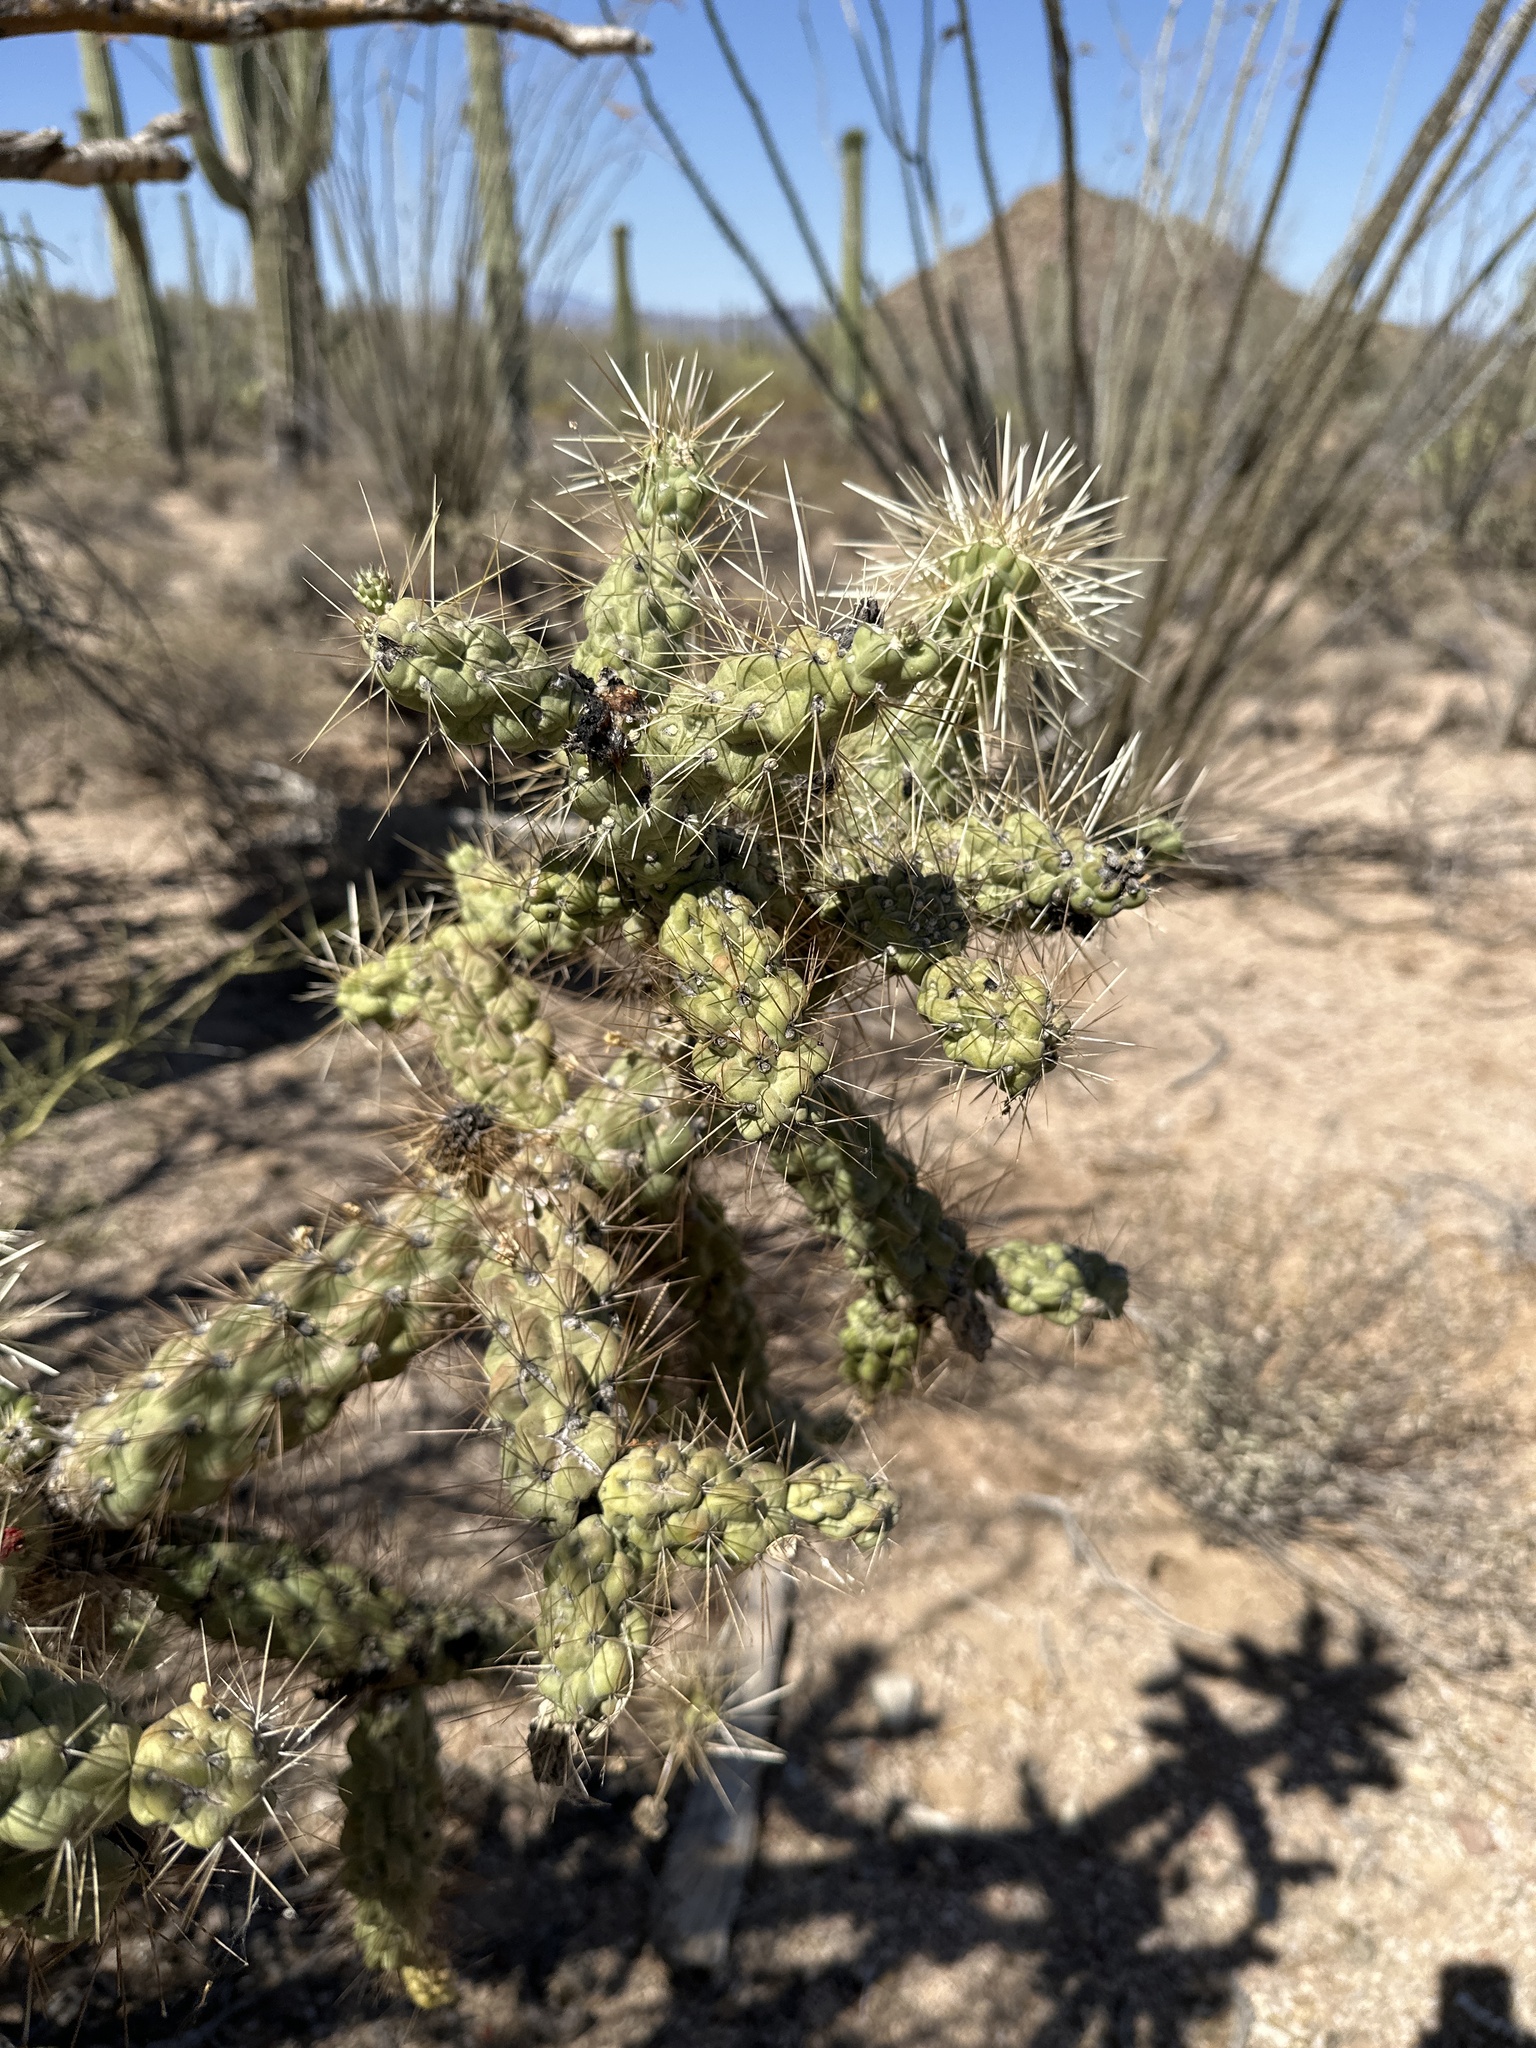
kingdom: Plantae
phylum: Tracheophyta
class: Magnoliopsida
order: Caryophyllales
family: Cactaceae
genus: Cylindropuntia
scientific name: Cylindropuntia fulgida
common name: Jumping cholla
